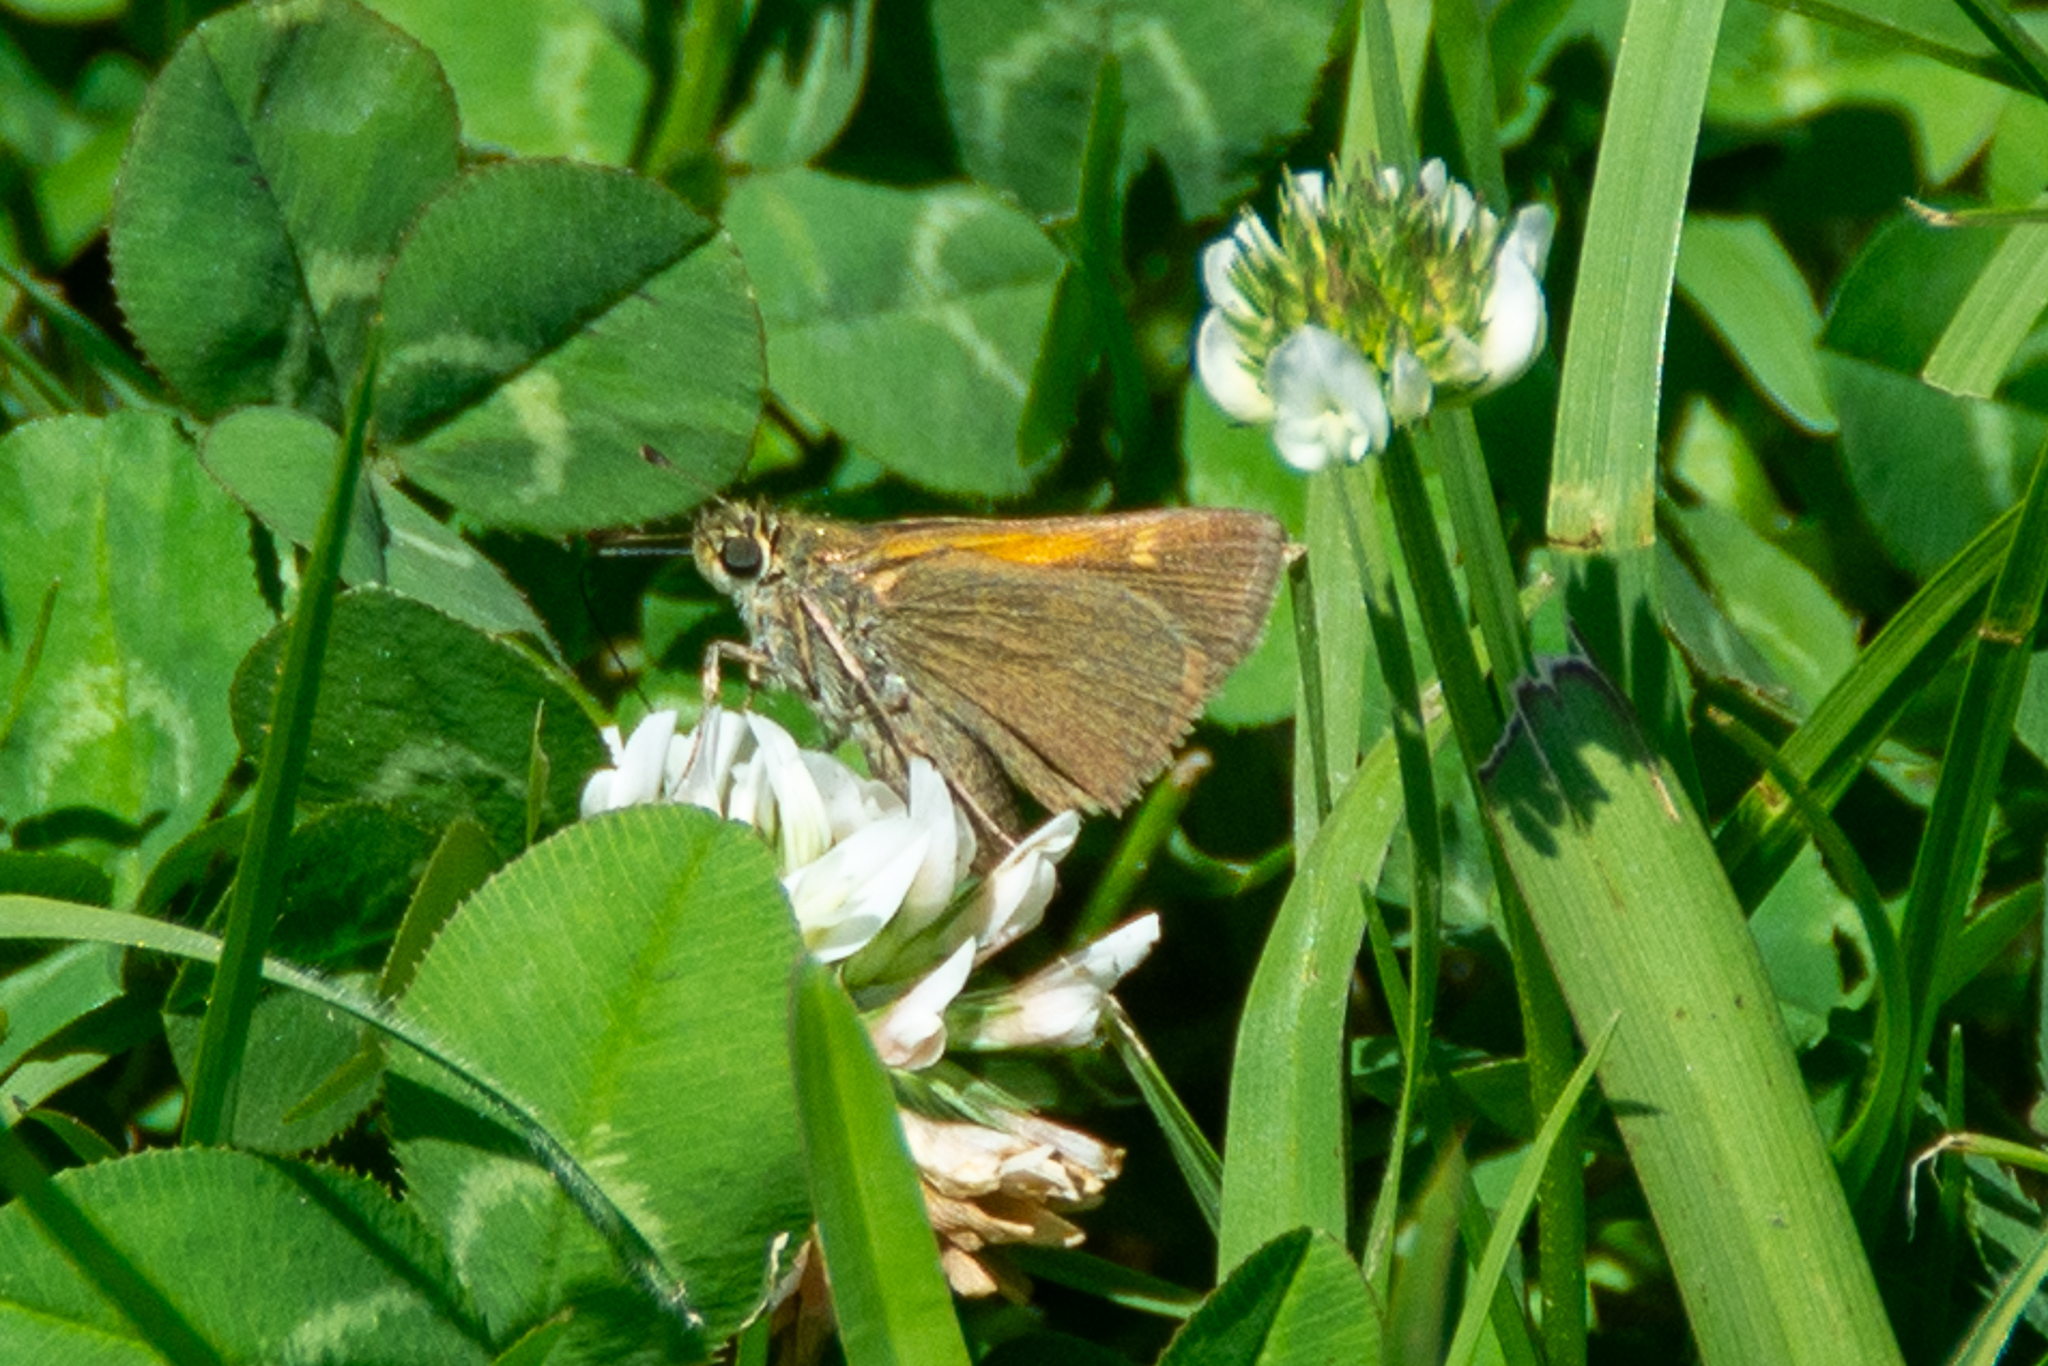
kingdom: Animalia
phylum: Arthropoda
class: Insecta
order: Lepidoptera
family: Hesperiidae
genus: Polites
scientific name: Polites themistocles
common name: Tawny-edged skipper
